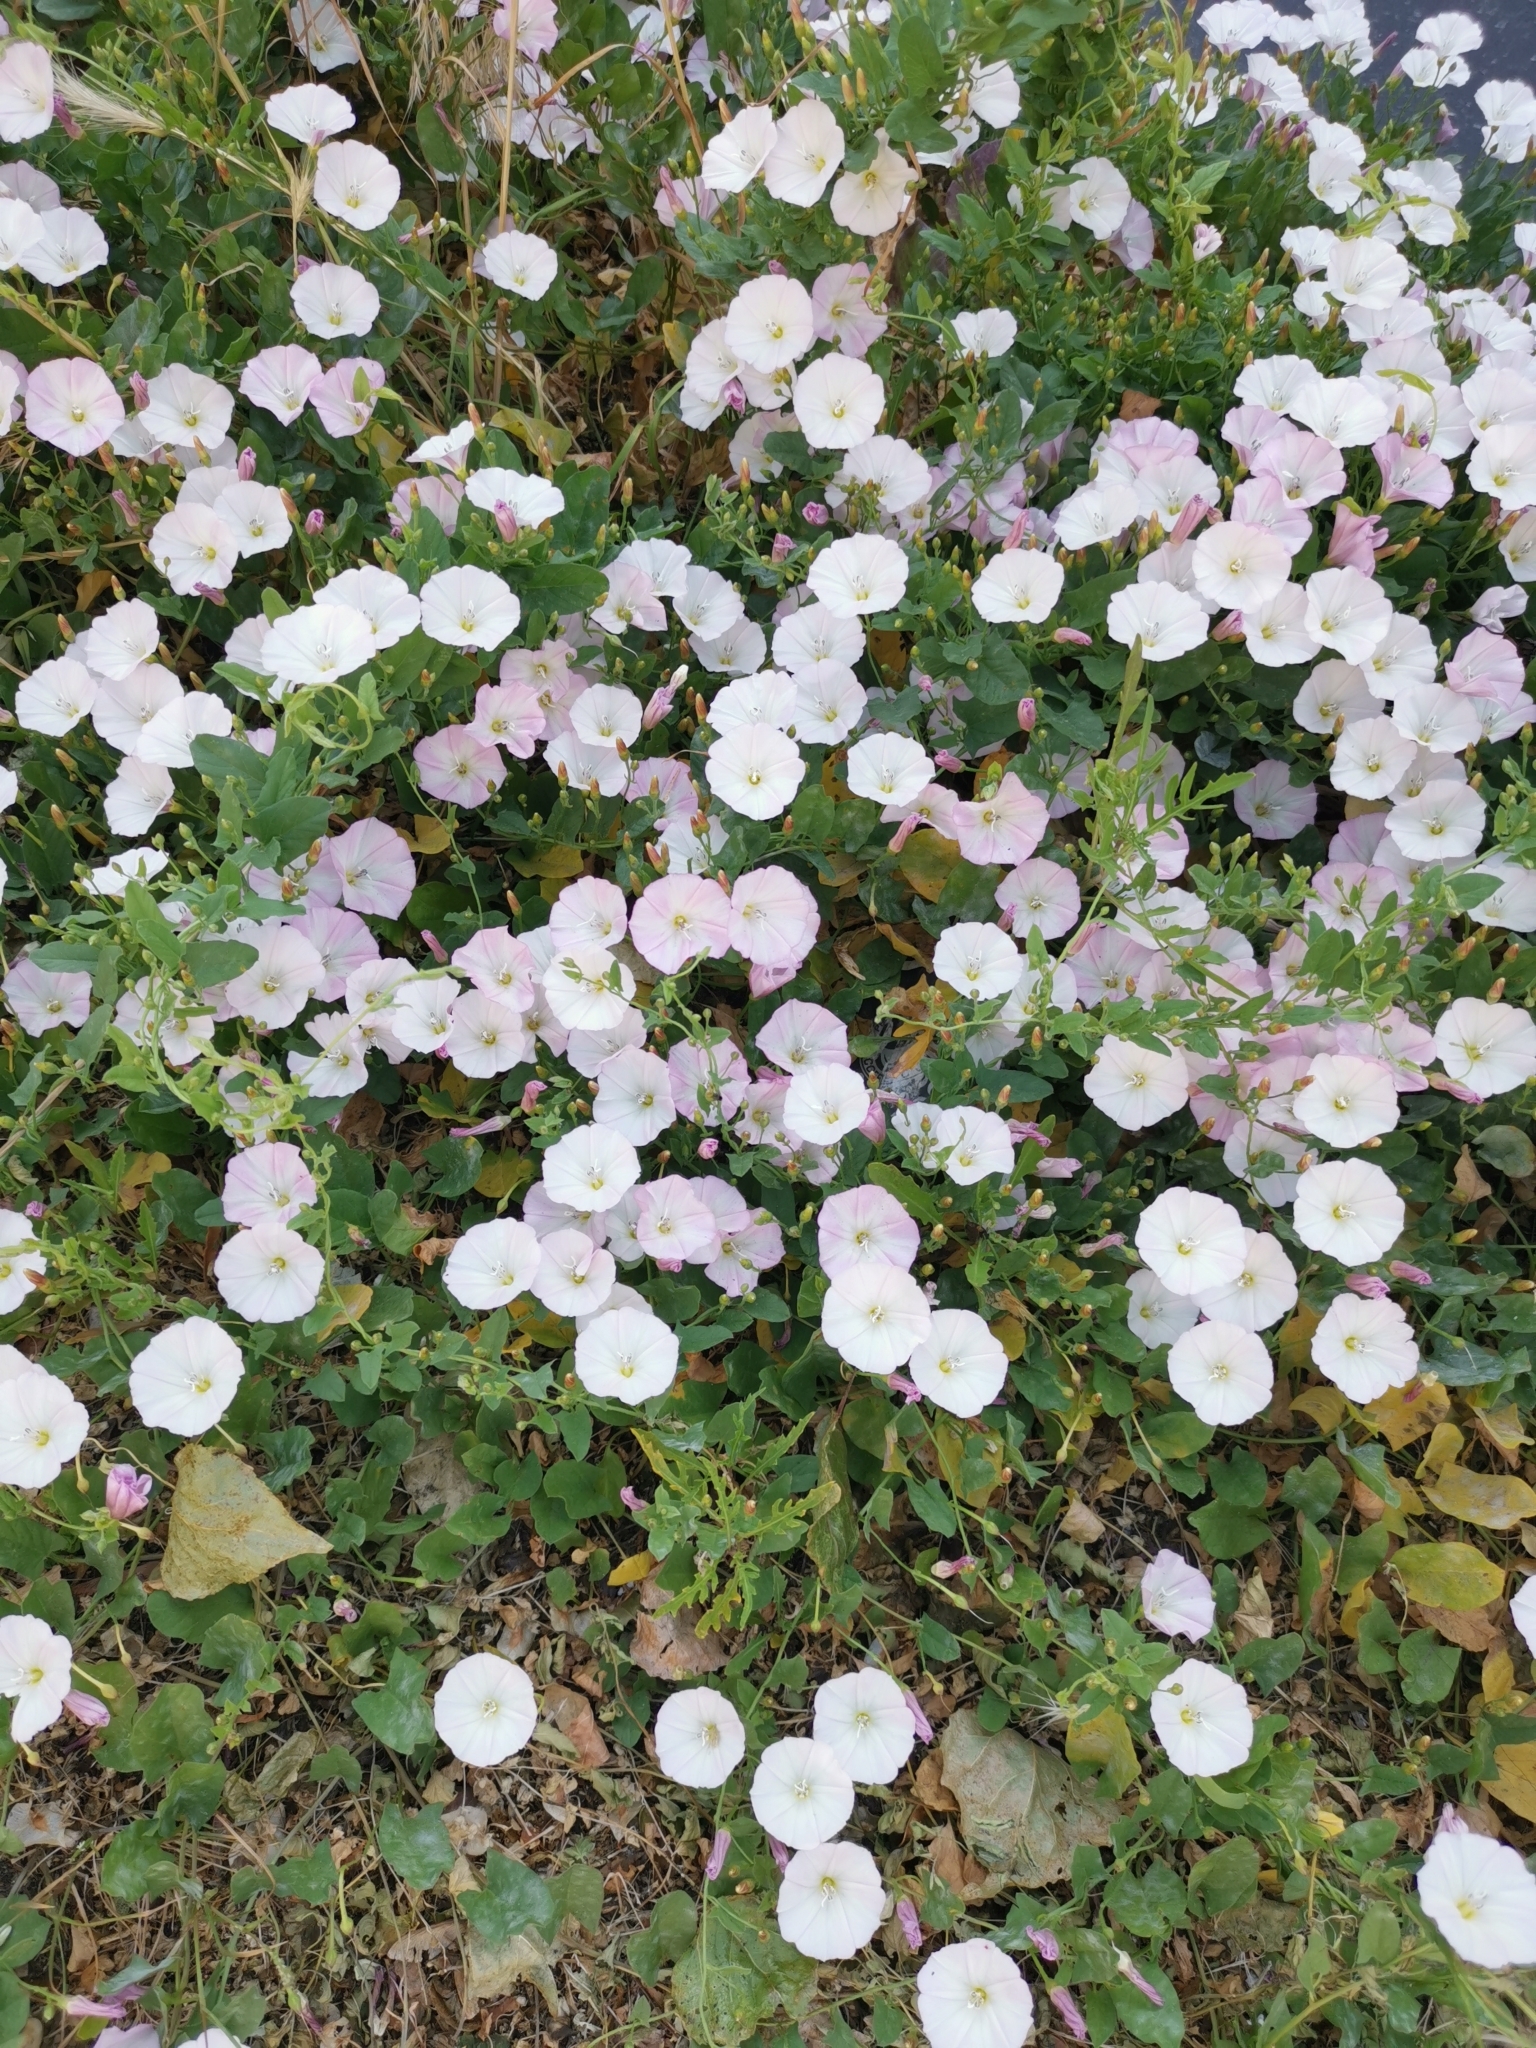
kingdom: Plantae
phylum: Tracheophyta
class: Magnoliopsida
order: Solanales
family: Convolvulaceae
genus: Convolvulus
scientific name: Convolvulus arvensis
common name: Field bindweed
